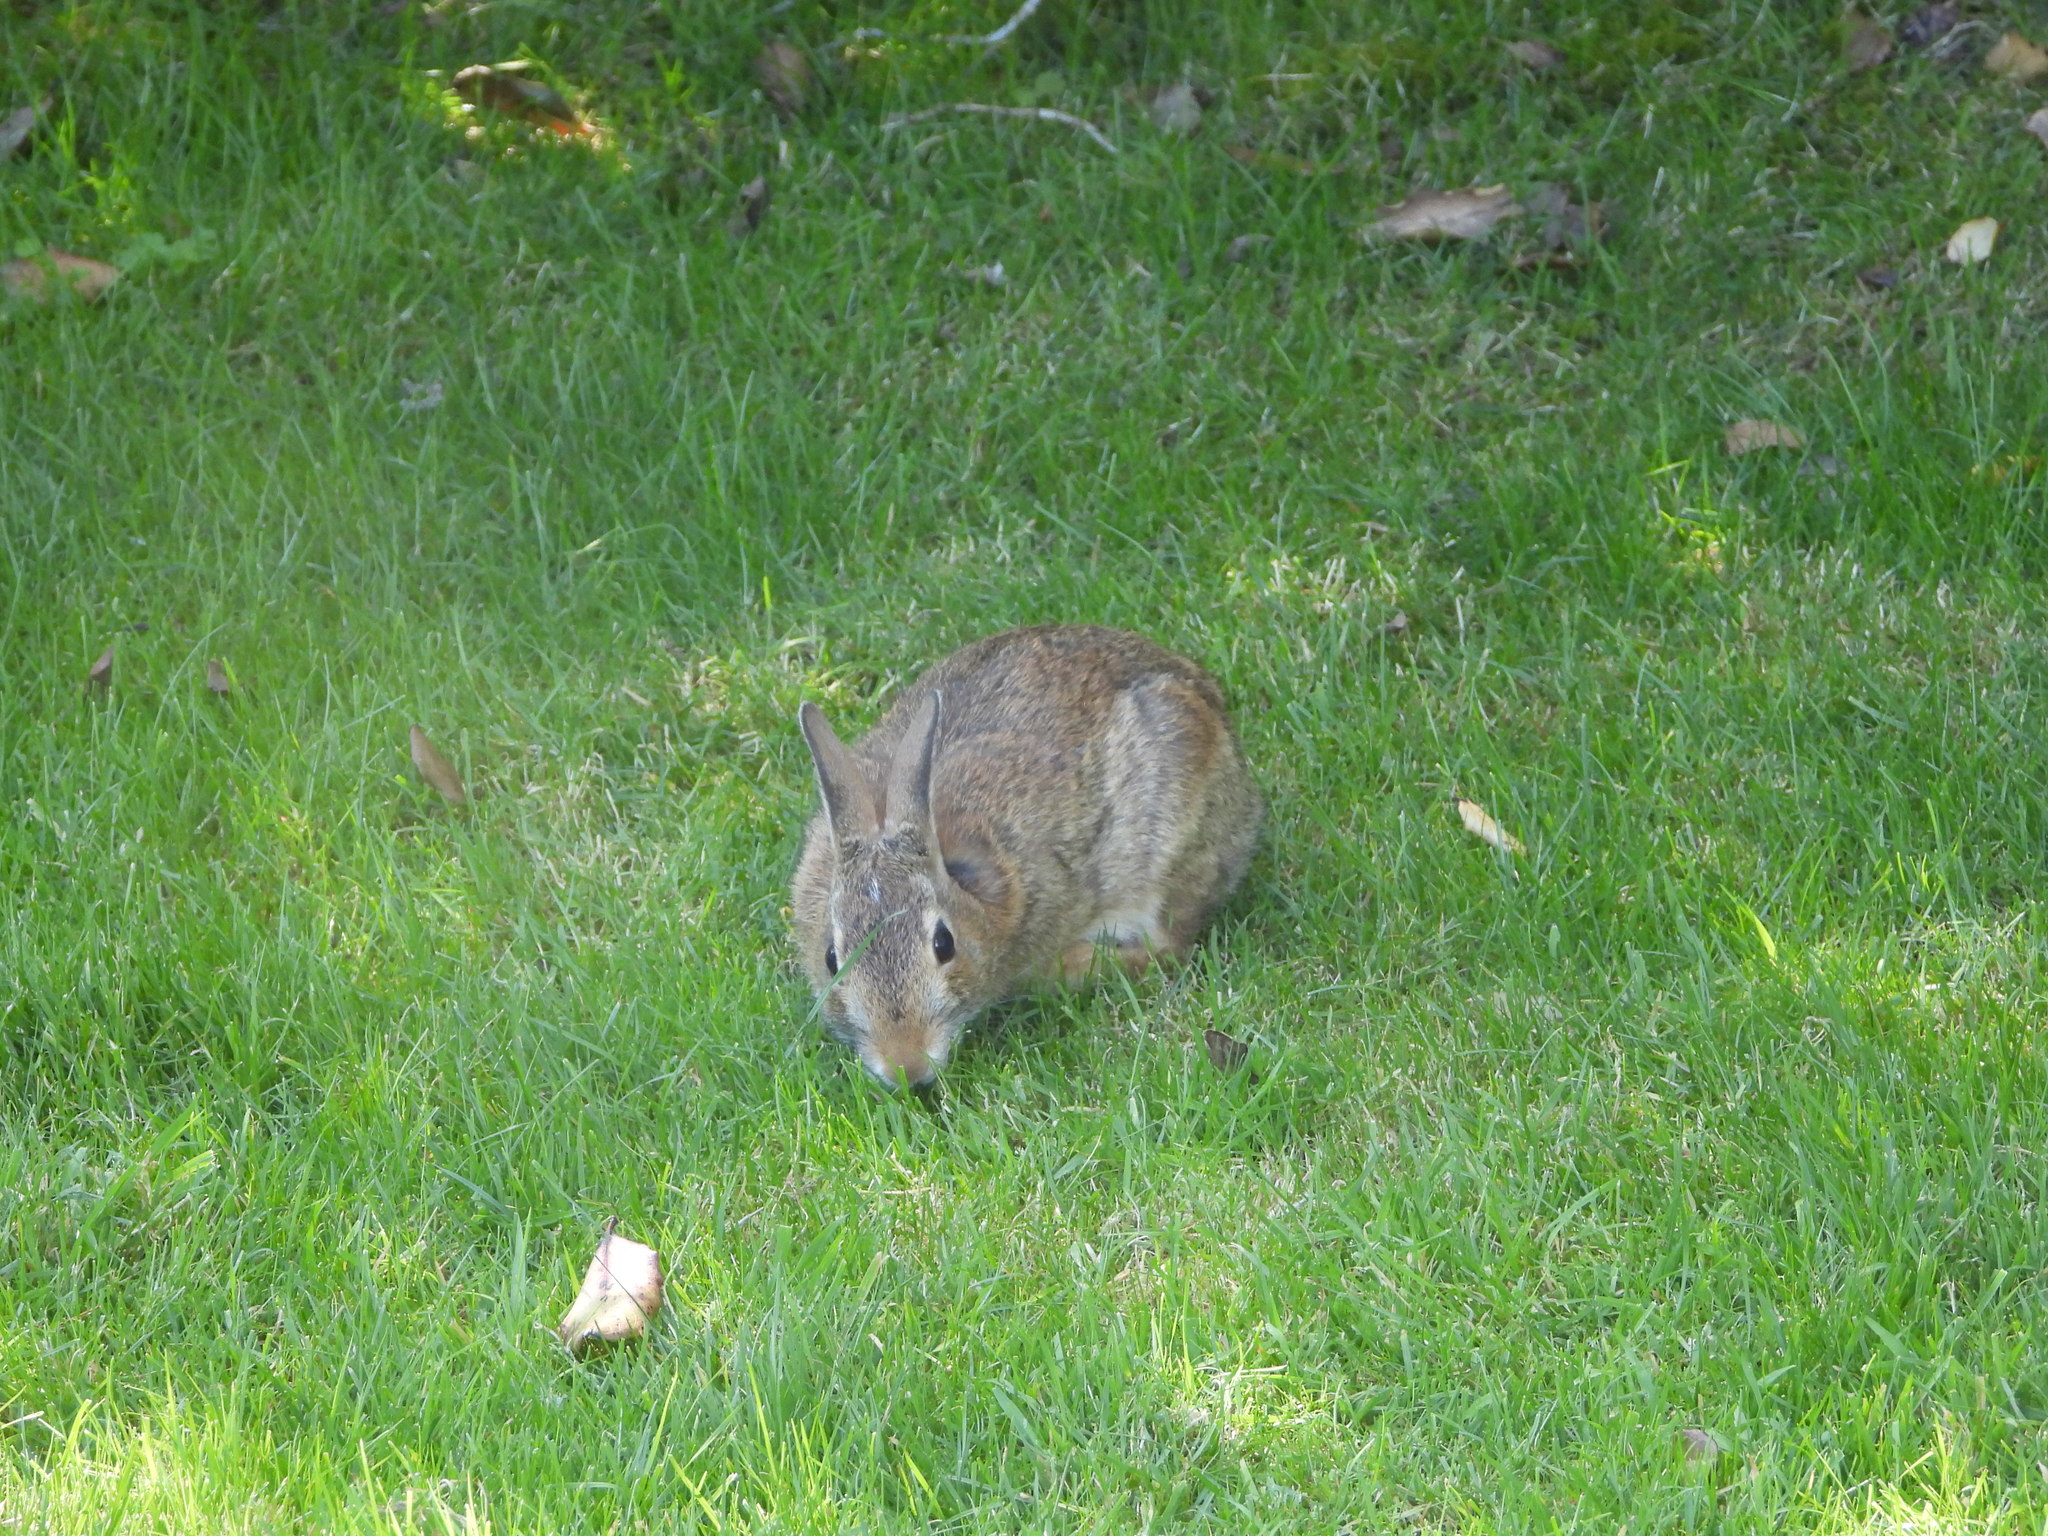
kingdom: Animalia
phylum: Chordata
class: Mammalia
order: Lagomorpha
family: Leporidae
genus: Sylvilagus
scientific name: Sylvilagus floridanus
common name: Eastern cottontail
